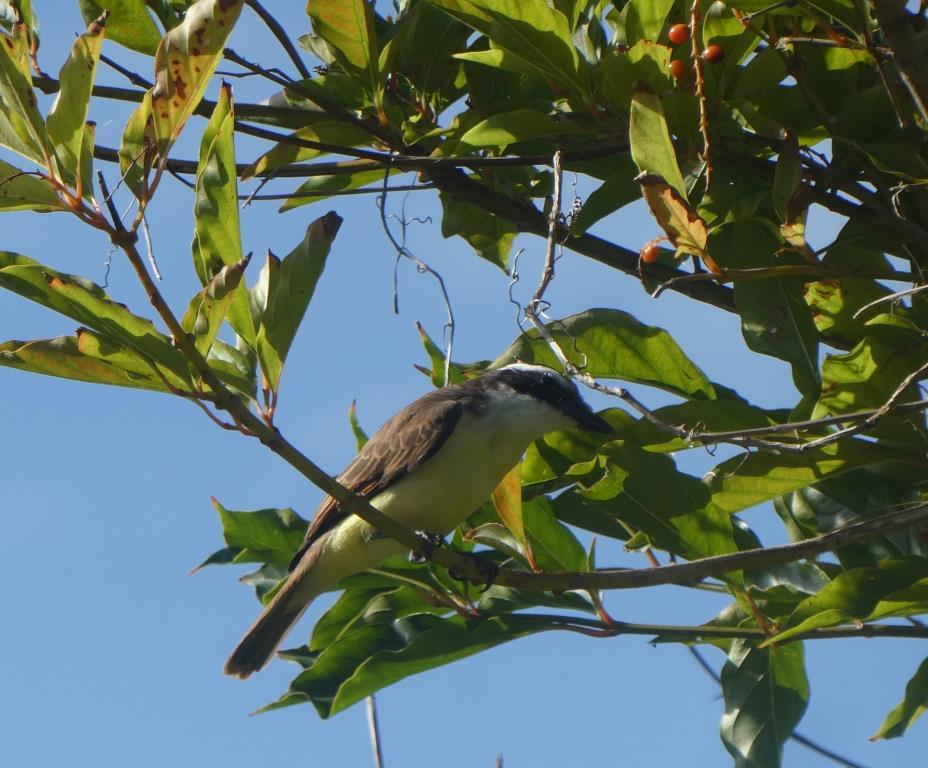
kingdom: Animalia
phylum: Chordata
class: Aves
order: Passeriformes
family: Tyrannidae
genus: Pitangus
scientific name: Pitangus sulphuratus
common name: Great kiskadee
